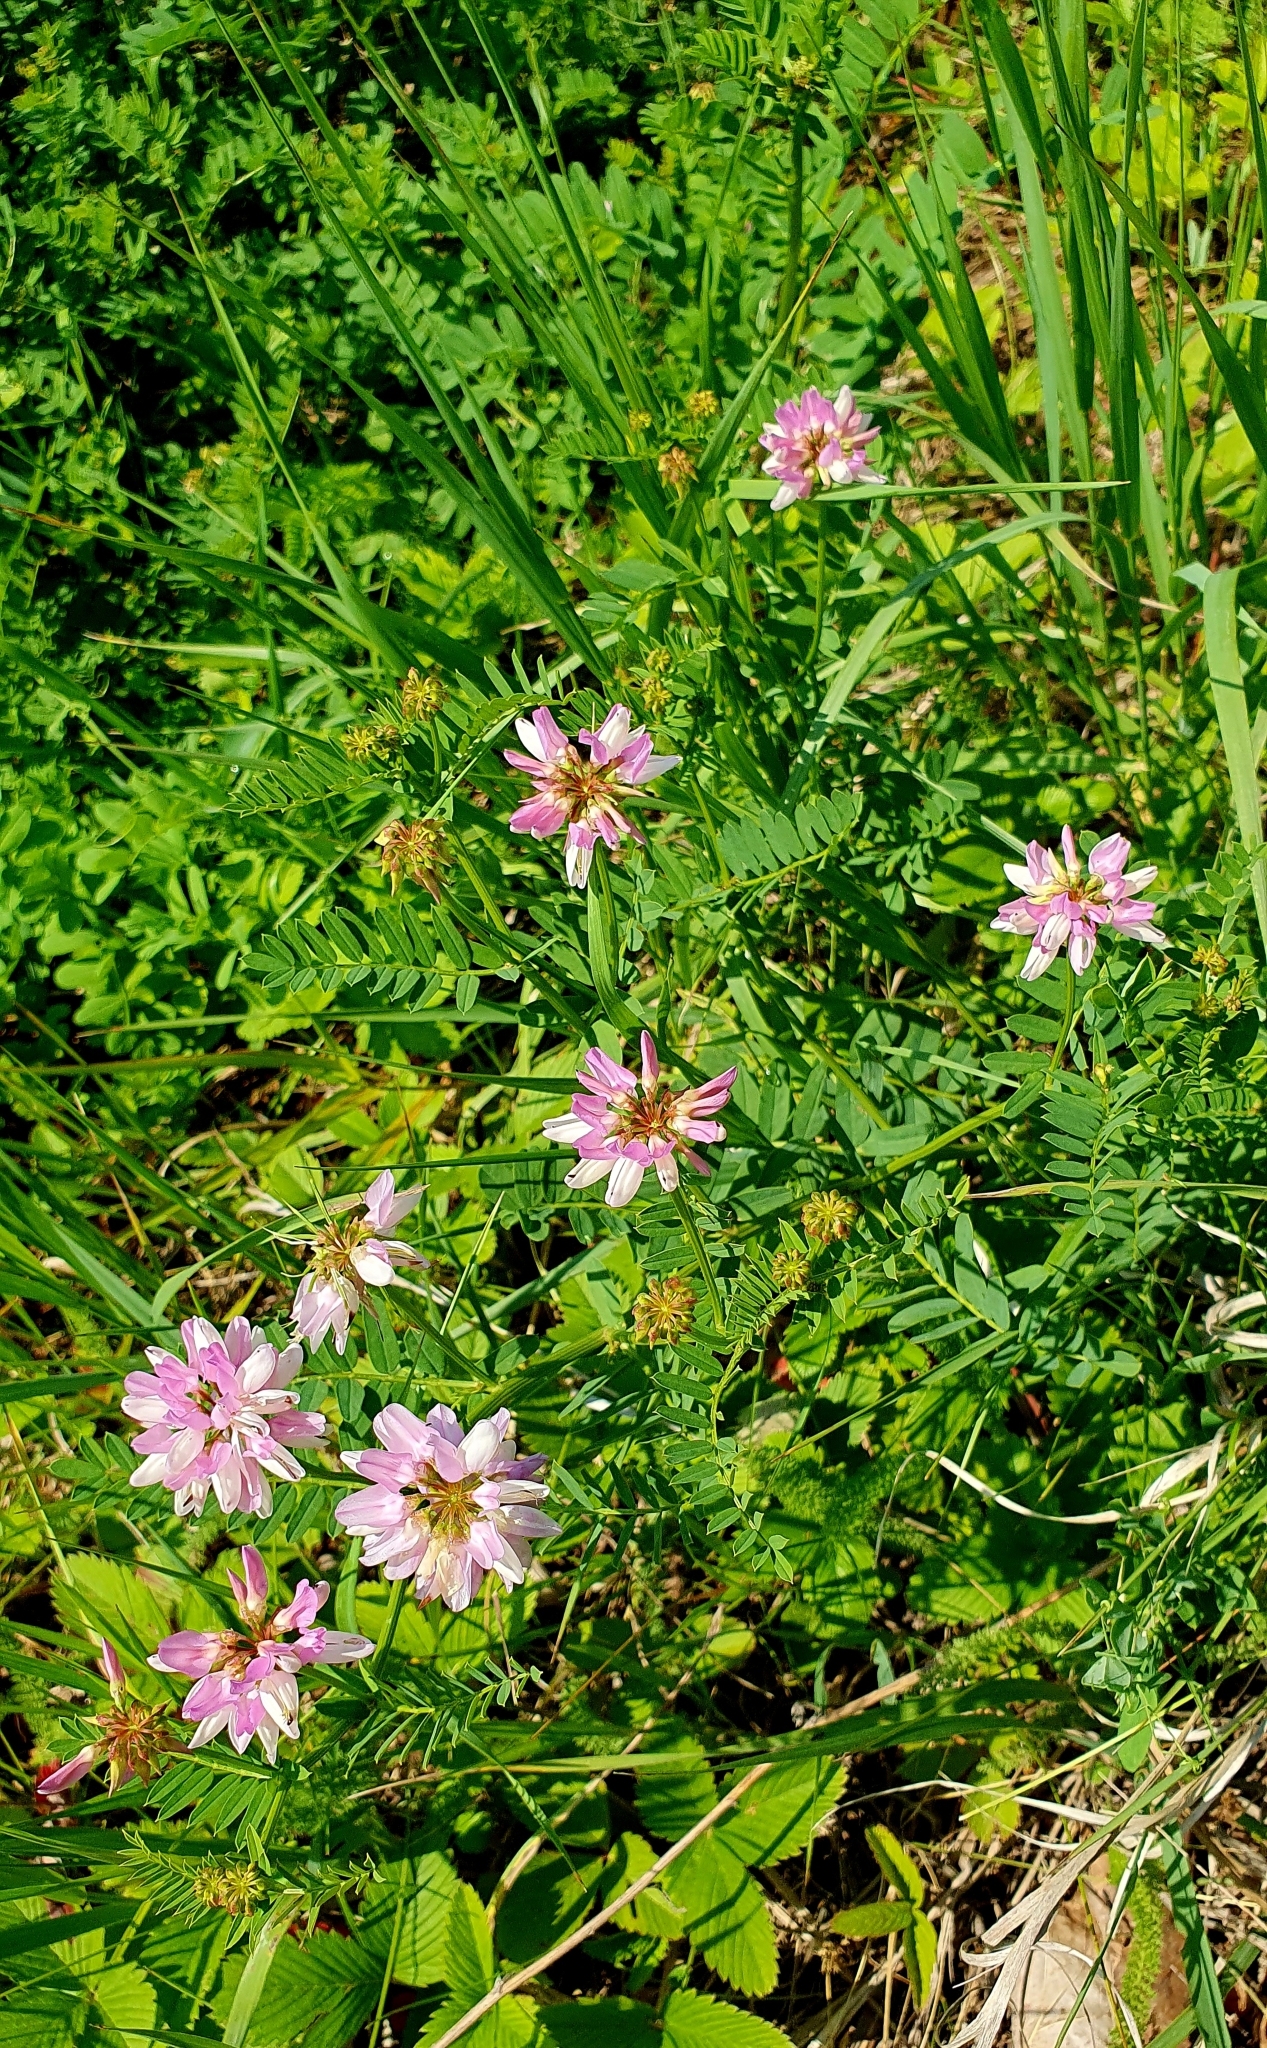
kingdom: Plantae
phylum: Tracheophyta
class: Magnoliopsida
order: Fabales
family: Fabaceae
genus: Coronilla
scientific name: Coronilla varia
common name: Crownvetch
